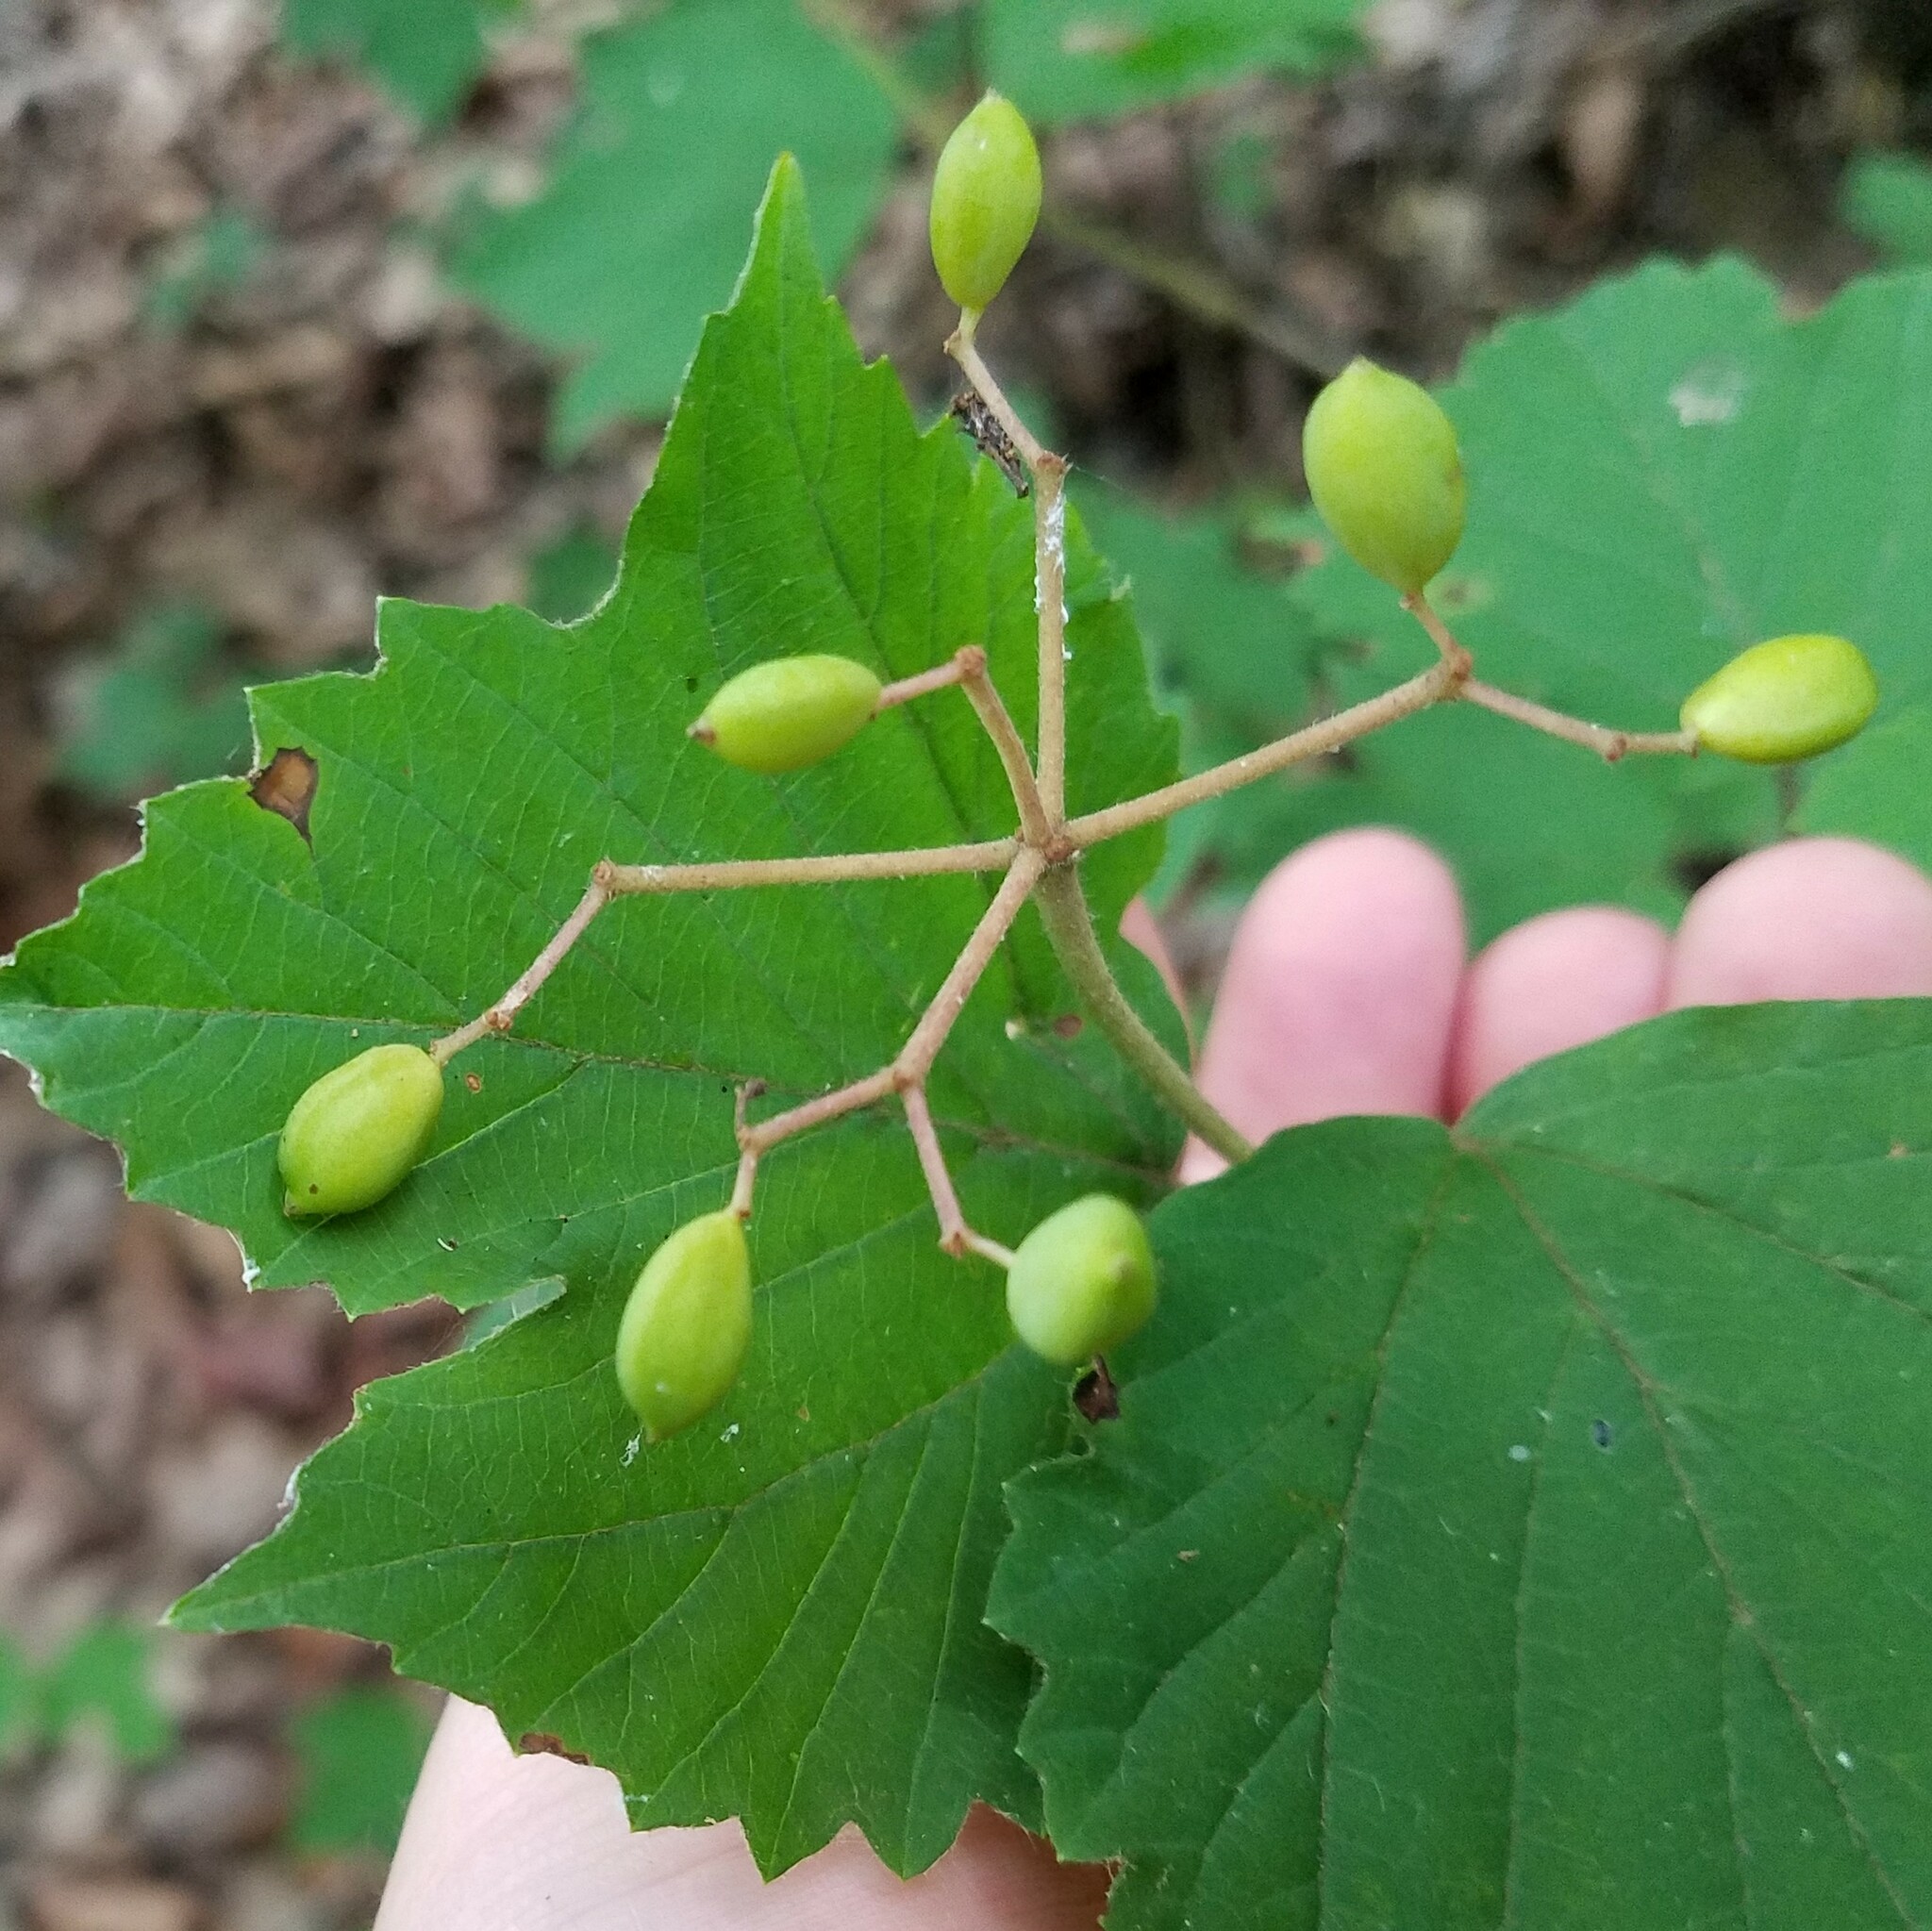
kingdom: Plantae
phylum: Tracheophyta
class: Magnoliopsida
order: Dipsacales
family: Viburnaceae
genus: Viburnum
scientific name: Viburnum acerifolium
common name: Dockmackie
